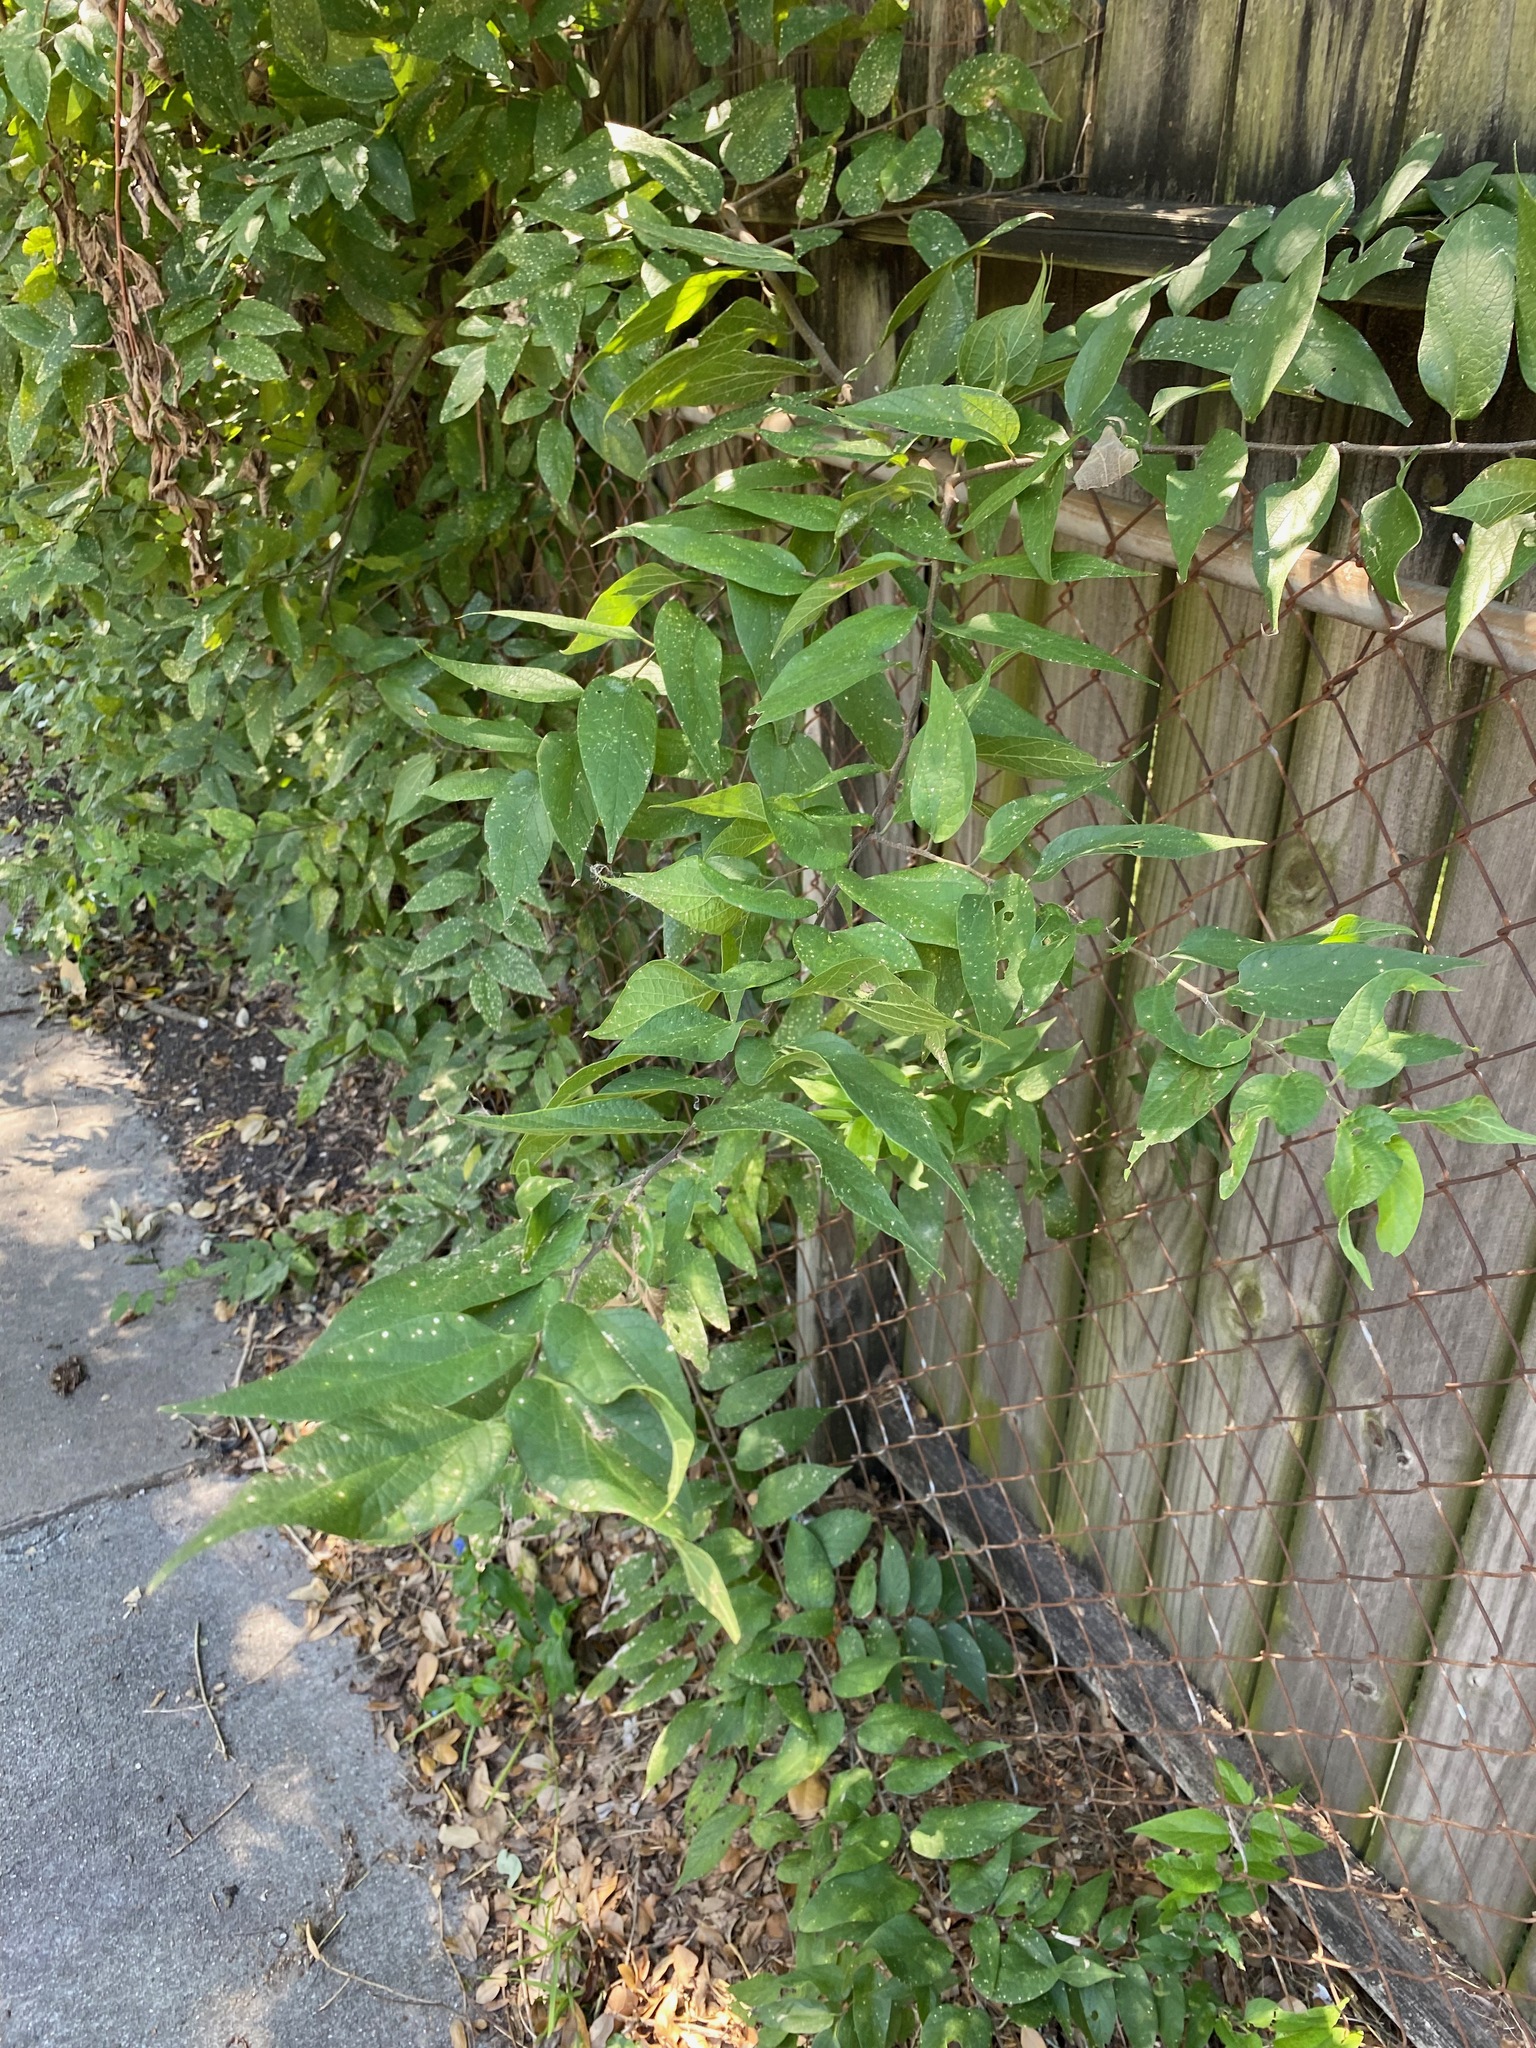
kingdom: Plantae
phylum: Tracheophyta
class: Magnoliopsida
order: Rosales
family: Cannabaceae
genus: Celtis
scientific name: Celtis laevigata
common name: Sugarberry
